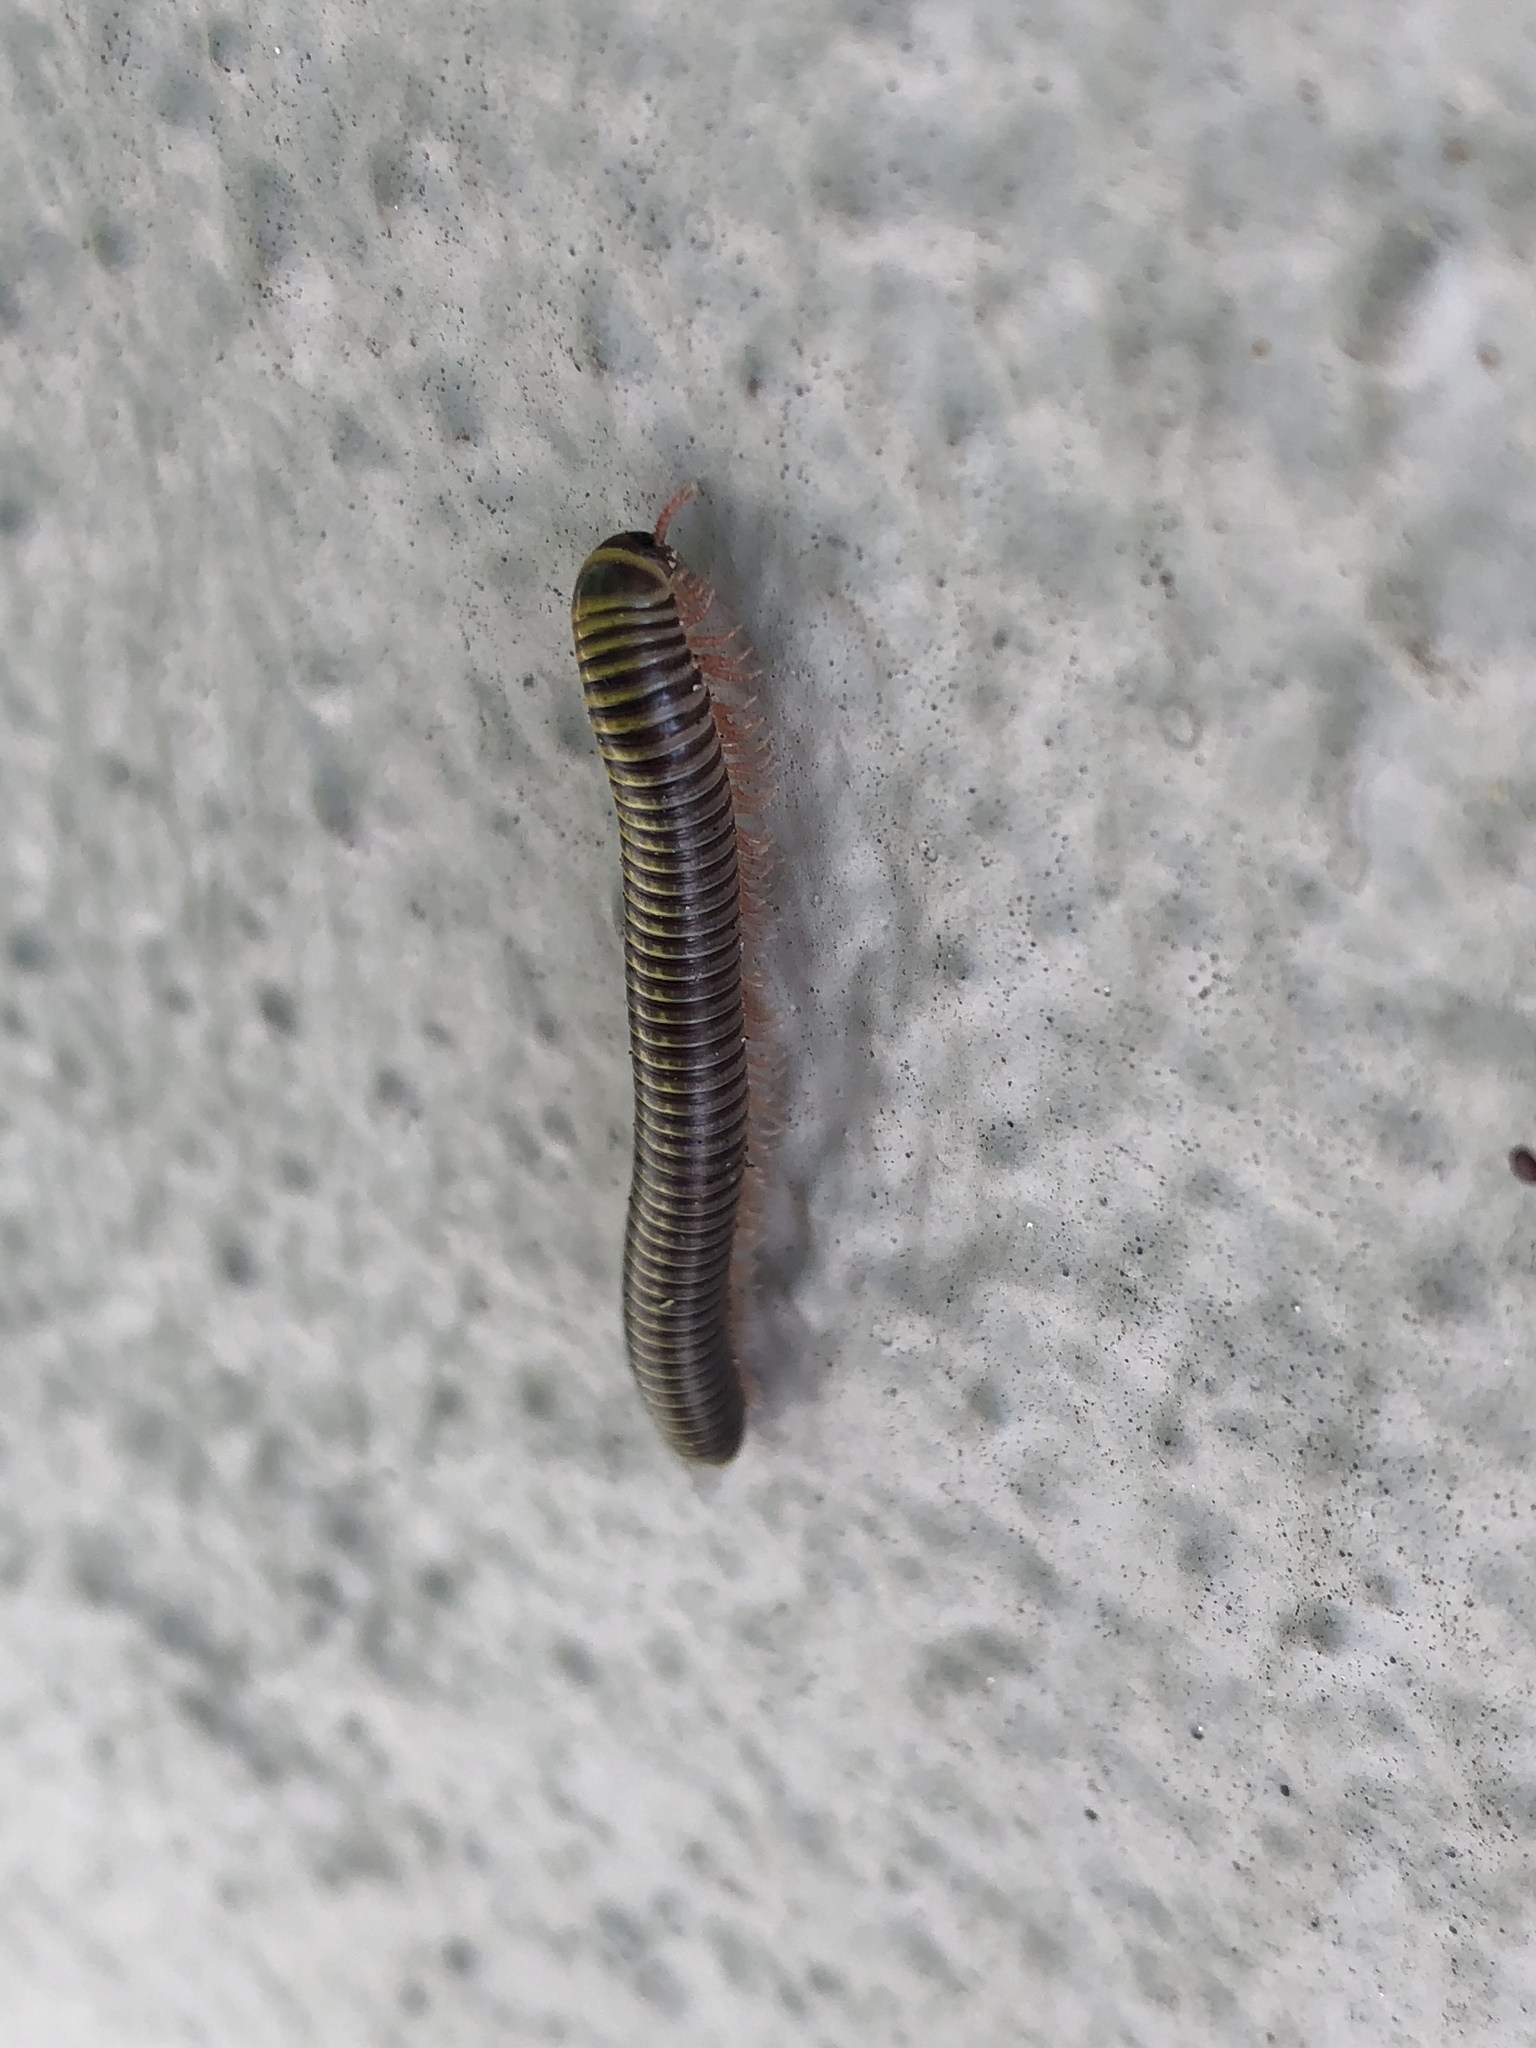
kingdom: Animalia
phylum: Arthropoda
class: Diplopoda
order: Spirobolida
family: Rhinocricidae
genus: Anadenobolus
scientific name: Anadenobolus monilicornis
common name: Caribbean millipede
